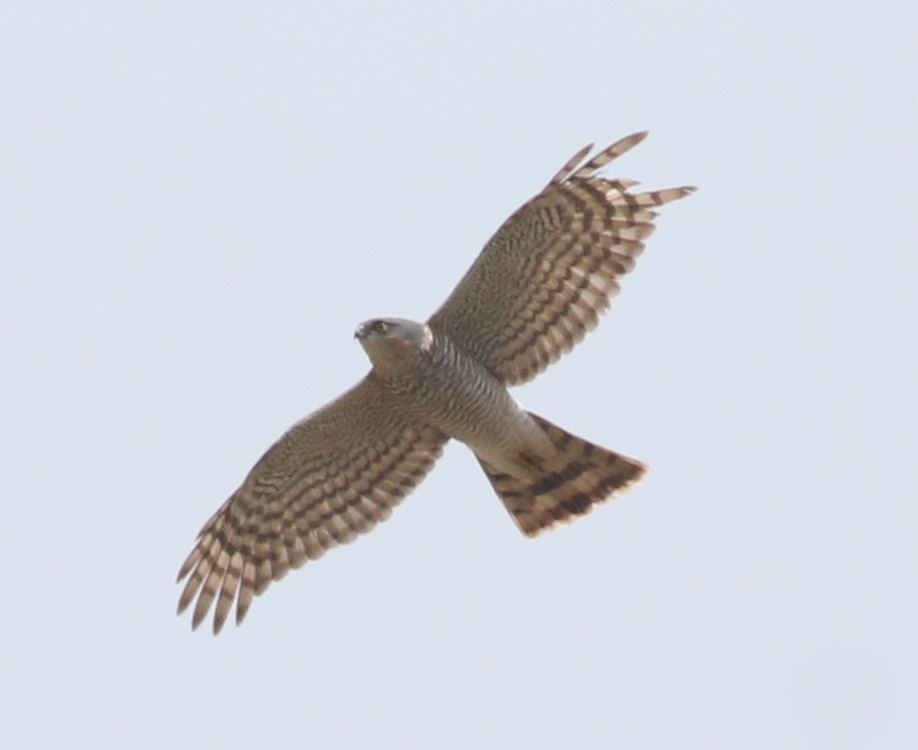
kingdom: Animalia
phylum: Chordata
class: Aves
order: Accipitriformes
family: Accipitridae
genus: Accipiter
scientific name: Accipiter nisus
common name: Eurasian sparrowhawk
